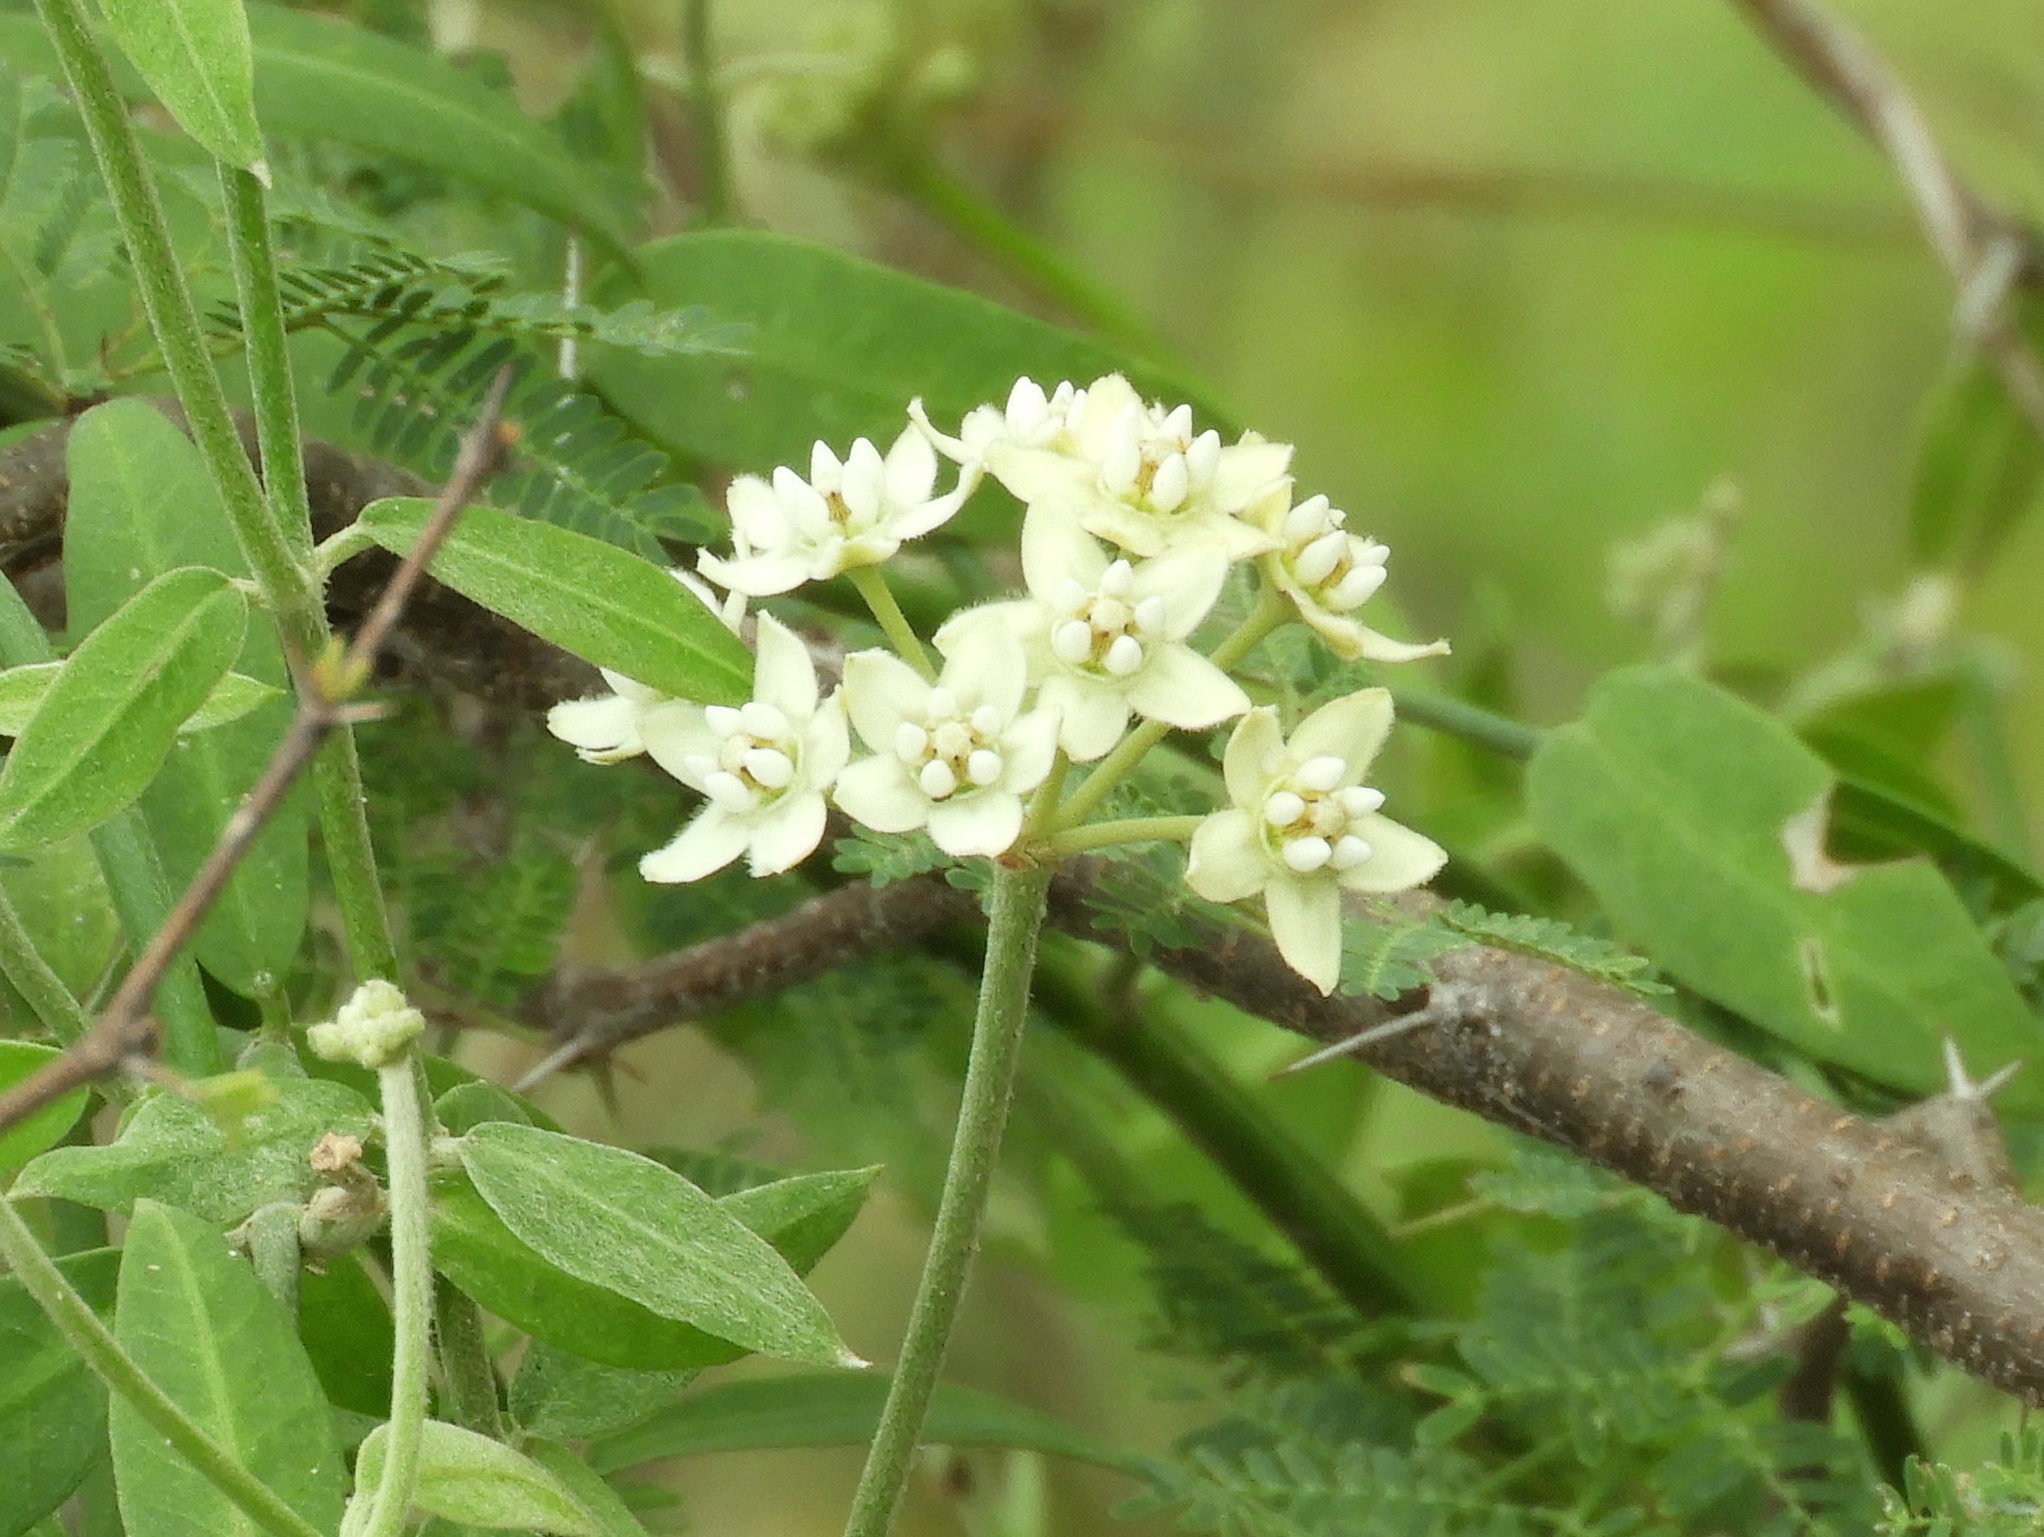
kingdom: Plantae
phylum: Tracheophyta
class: Magnoliopsida
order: Gentianales
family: Apocynaceae
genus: Funastrum
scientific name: Funastrum clausum
